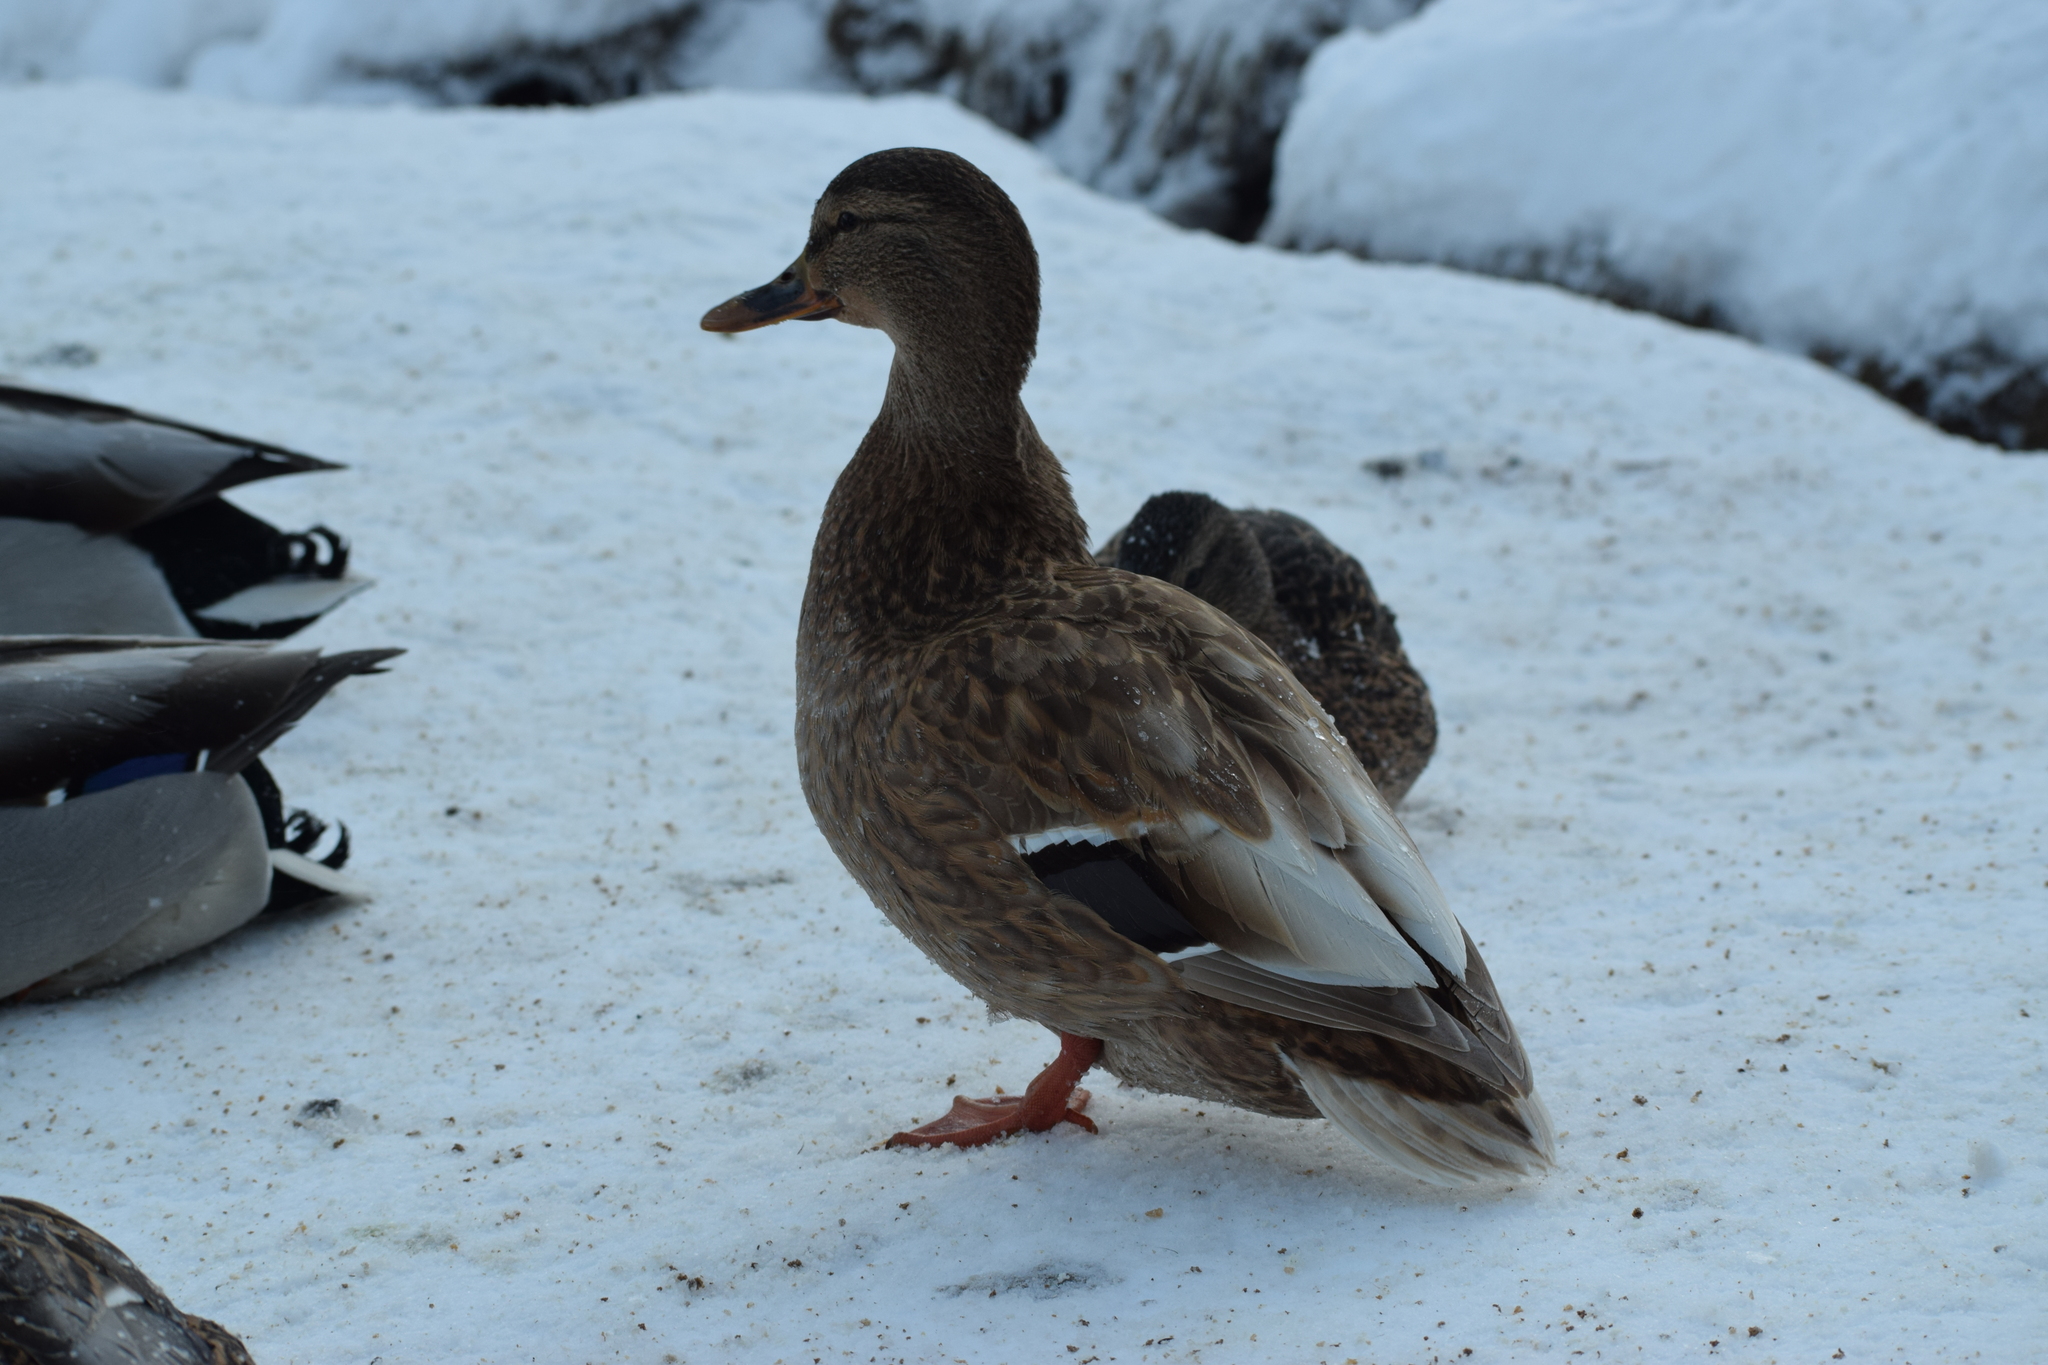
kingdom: Animalia
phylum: Chordata
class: Aves
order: Anseriformes
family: Anatidae
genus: Anas
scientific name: Anas platyrhynchos
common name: Mallard
